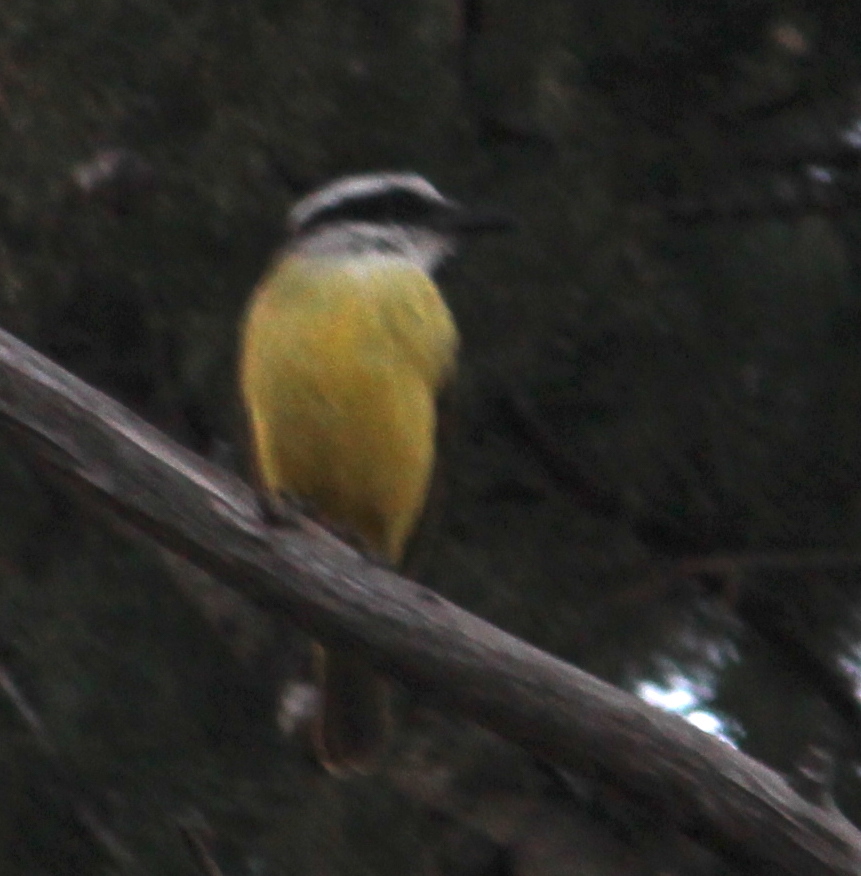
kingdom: Animalia
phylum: Chordata
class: Aves
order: Passeriformes
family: Tyrannidae
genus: Pitangus
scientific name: Pitangus sulphuratus
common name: Great kiskadee
